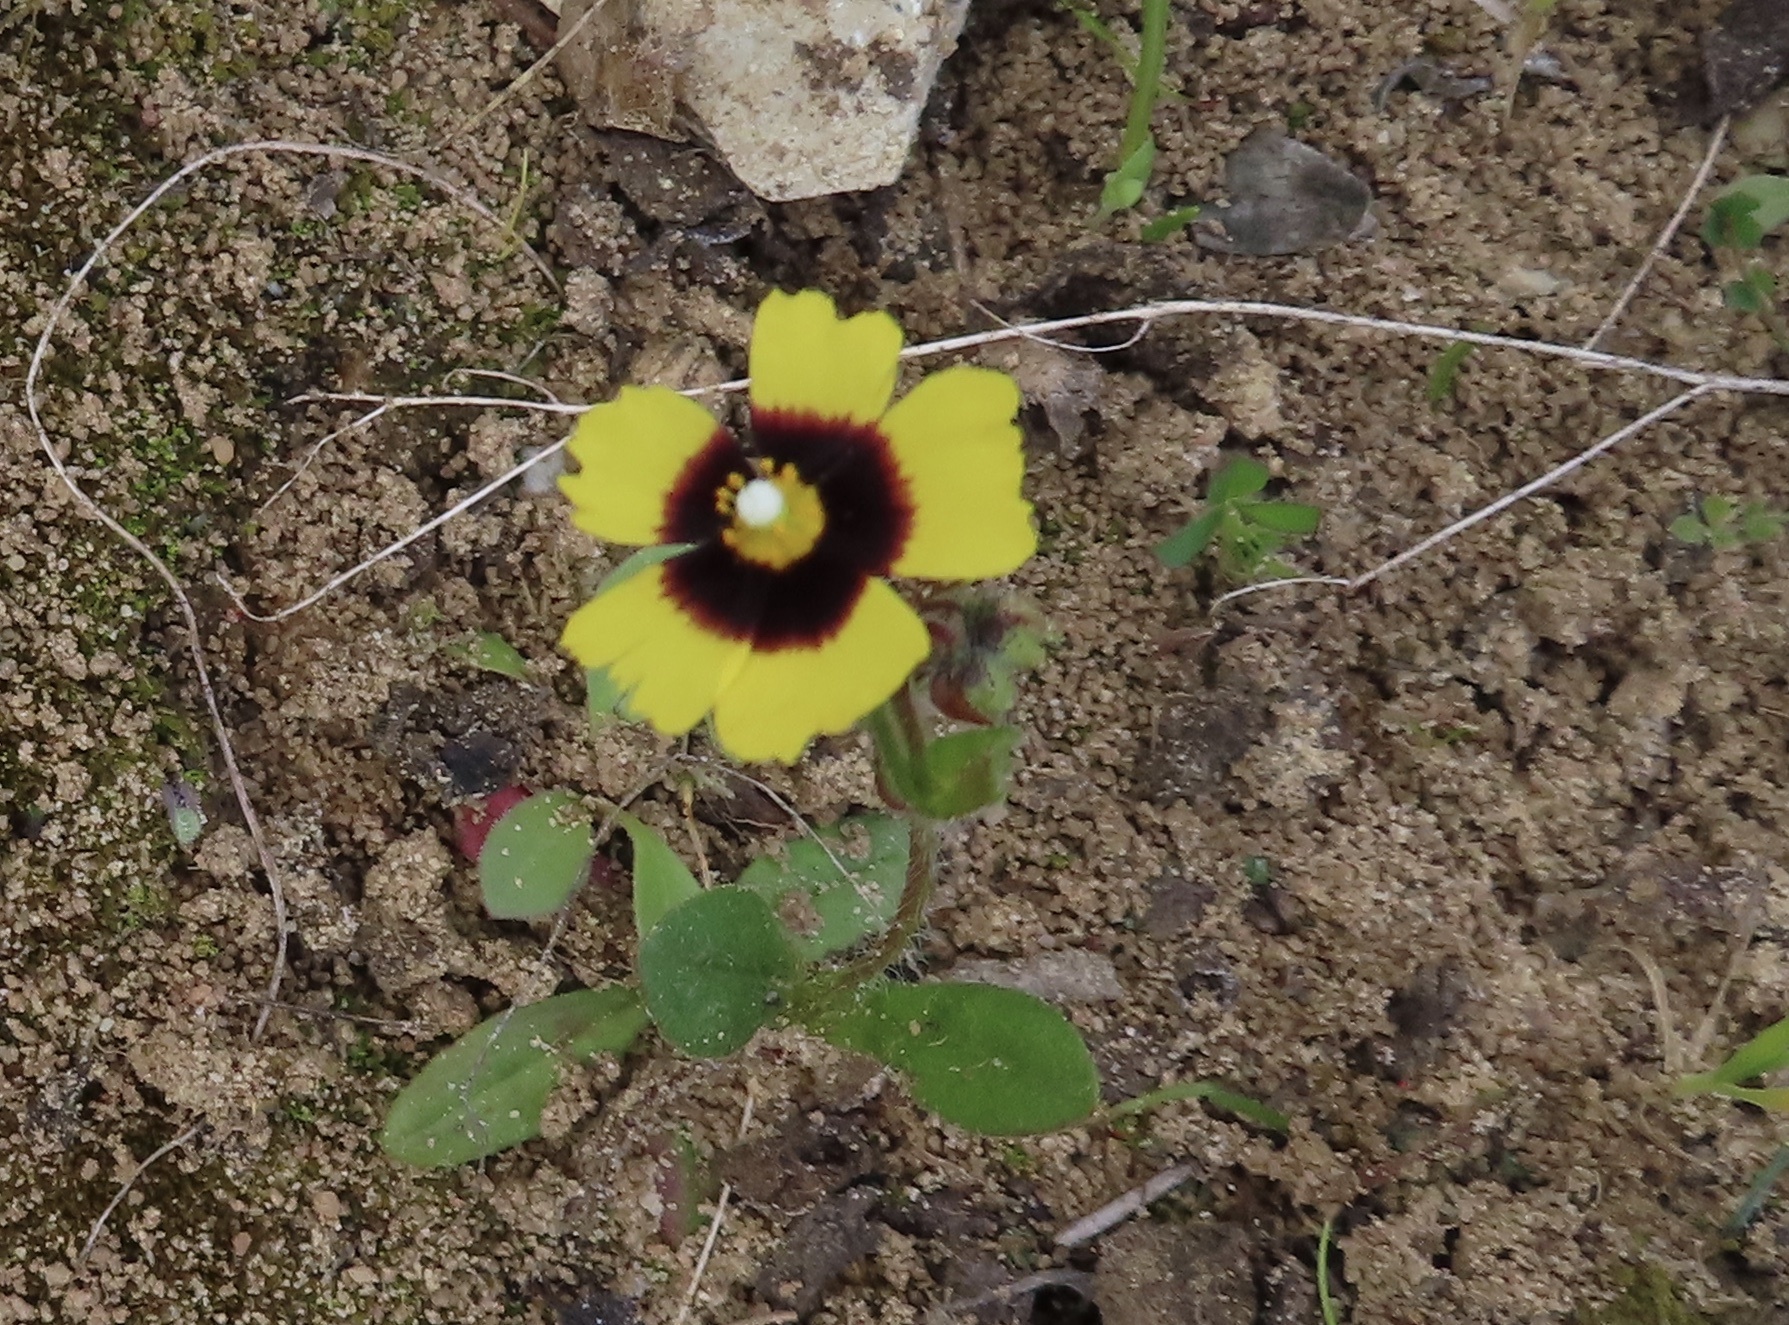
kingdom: Plantae
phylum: Tracheophyta
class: Magnoliopsida
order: Malvales
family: Cistaceae
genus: Tuberaria
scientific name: Tuberaria guttata
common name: Spotted rock-rose
